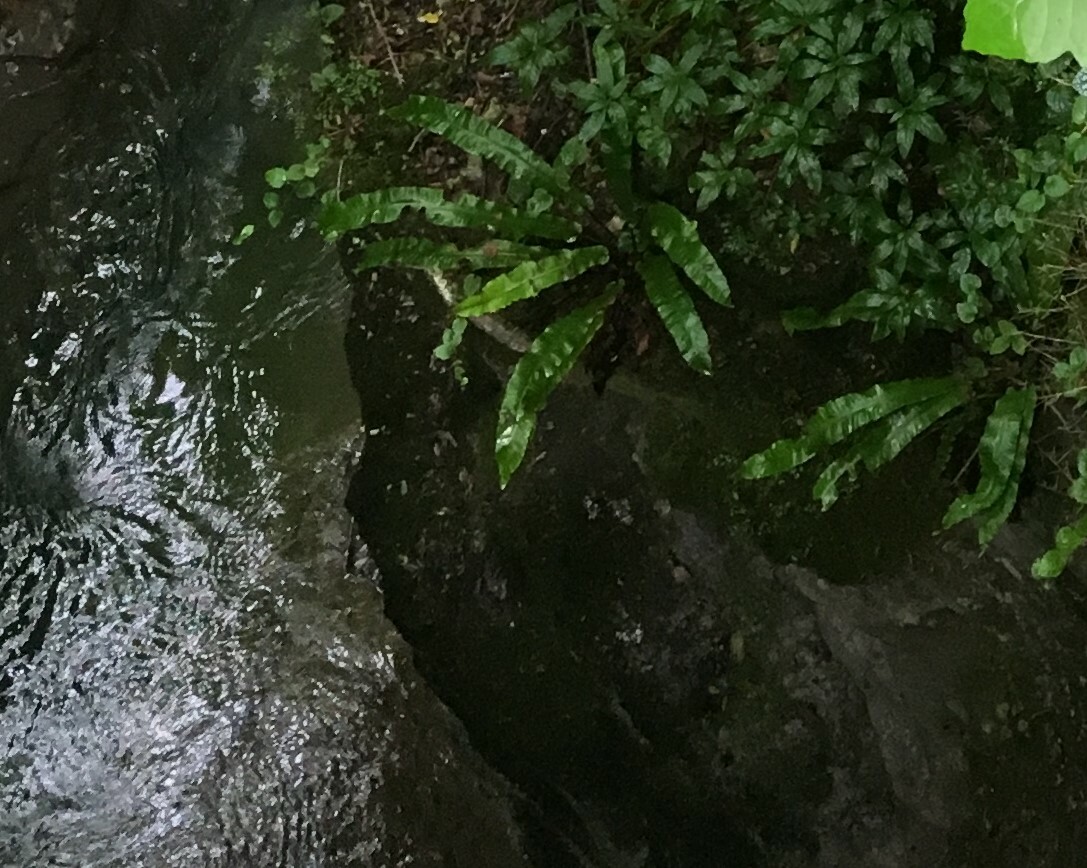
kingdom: Plantae
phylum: Tracheophyta
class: Polypodiopsida
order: Polypodiales
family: Aspleniaceae
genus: Asplenium
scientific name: Asplenium scolopendrium
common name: Hart's-tongue fern
